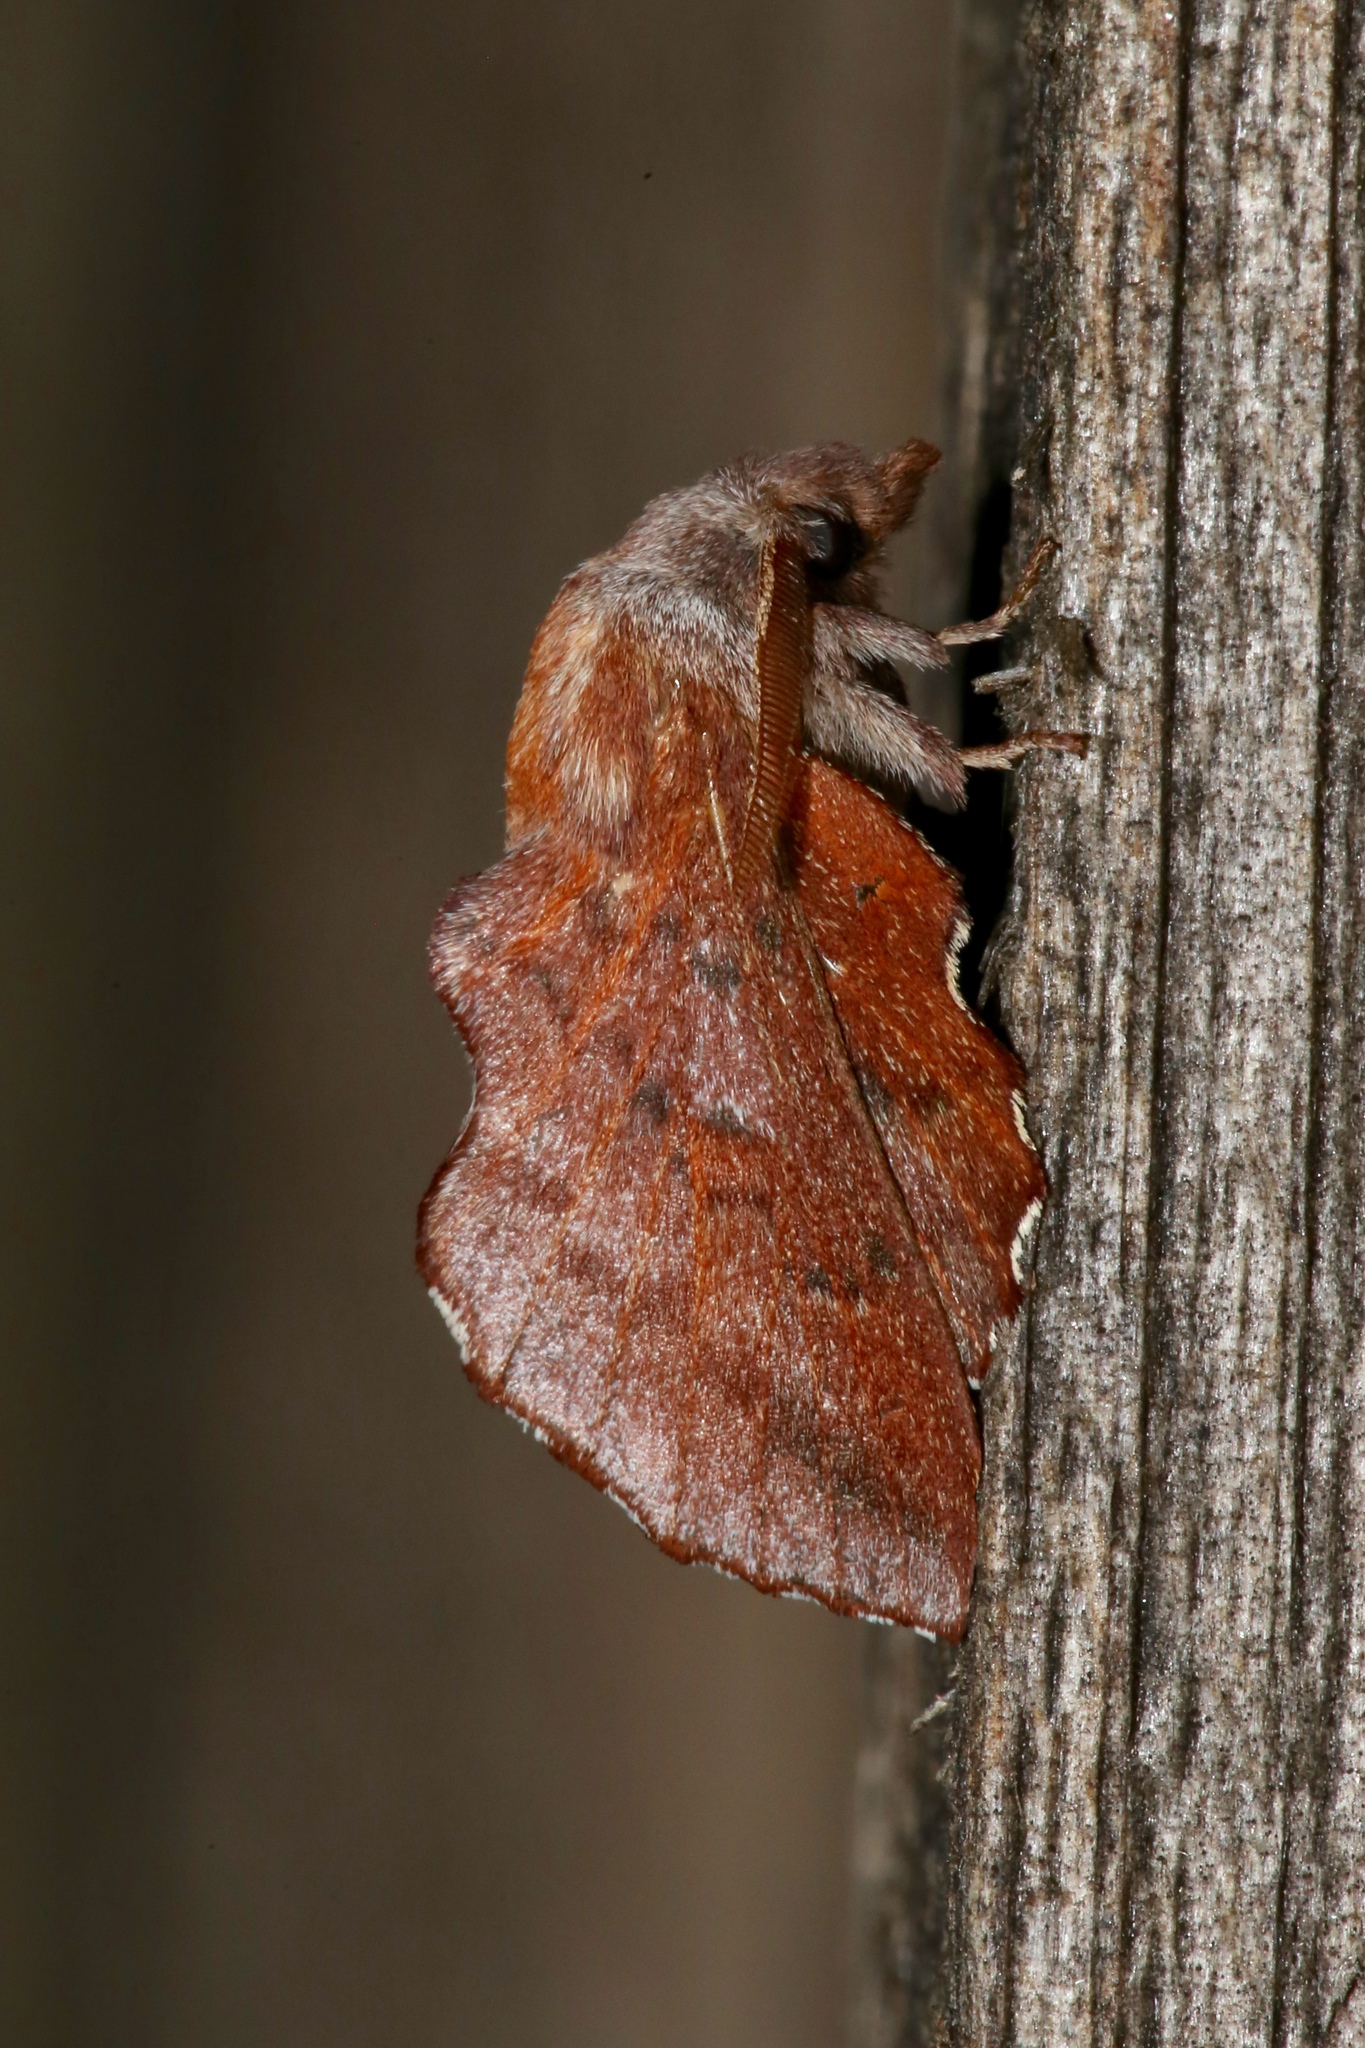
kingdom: Animalia
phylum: Arthropoda
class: Insecta
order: Lepidoptera
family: Lasiocampidae
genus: Phyllodesma
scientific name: Phyllodesma americana
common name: American lappet moth
